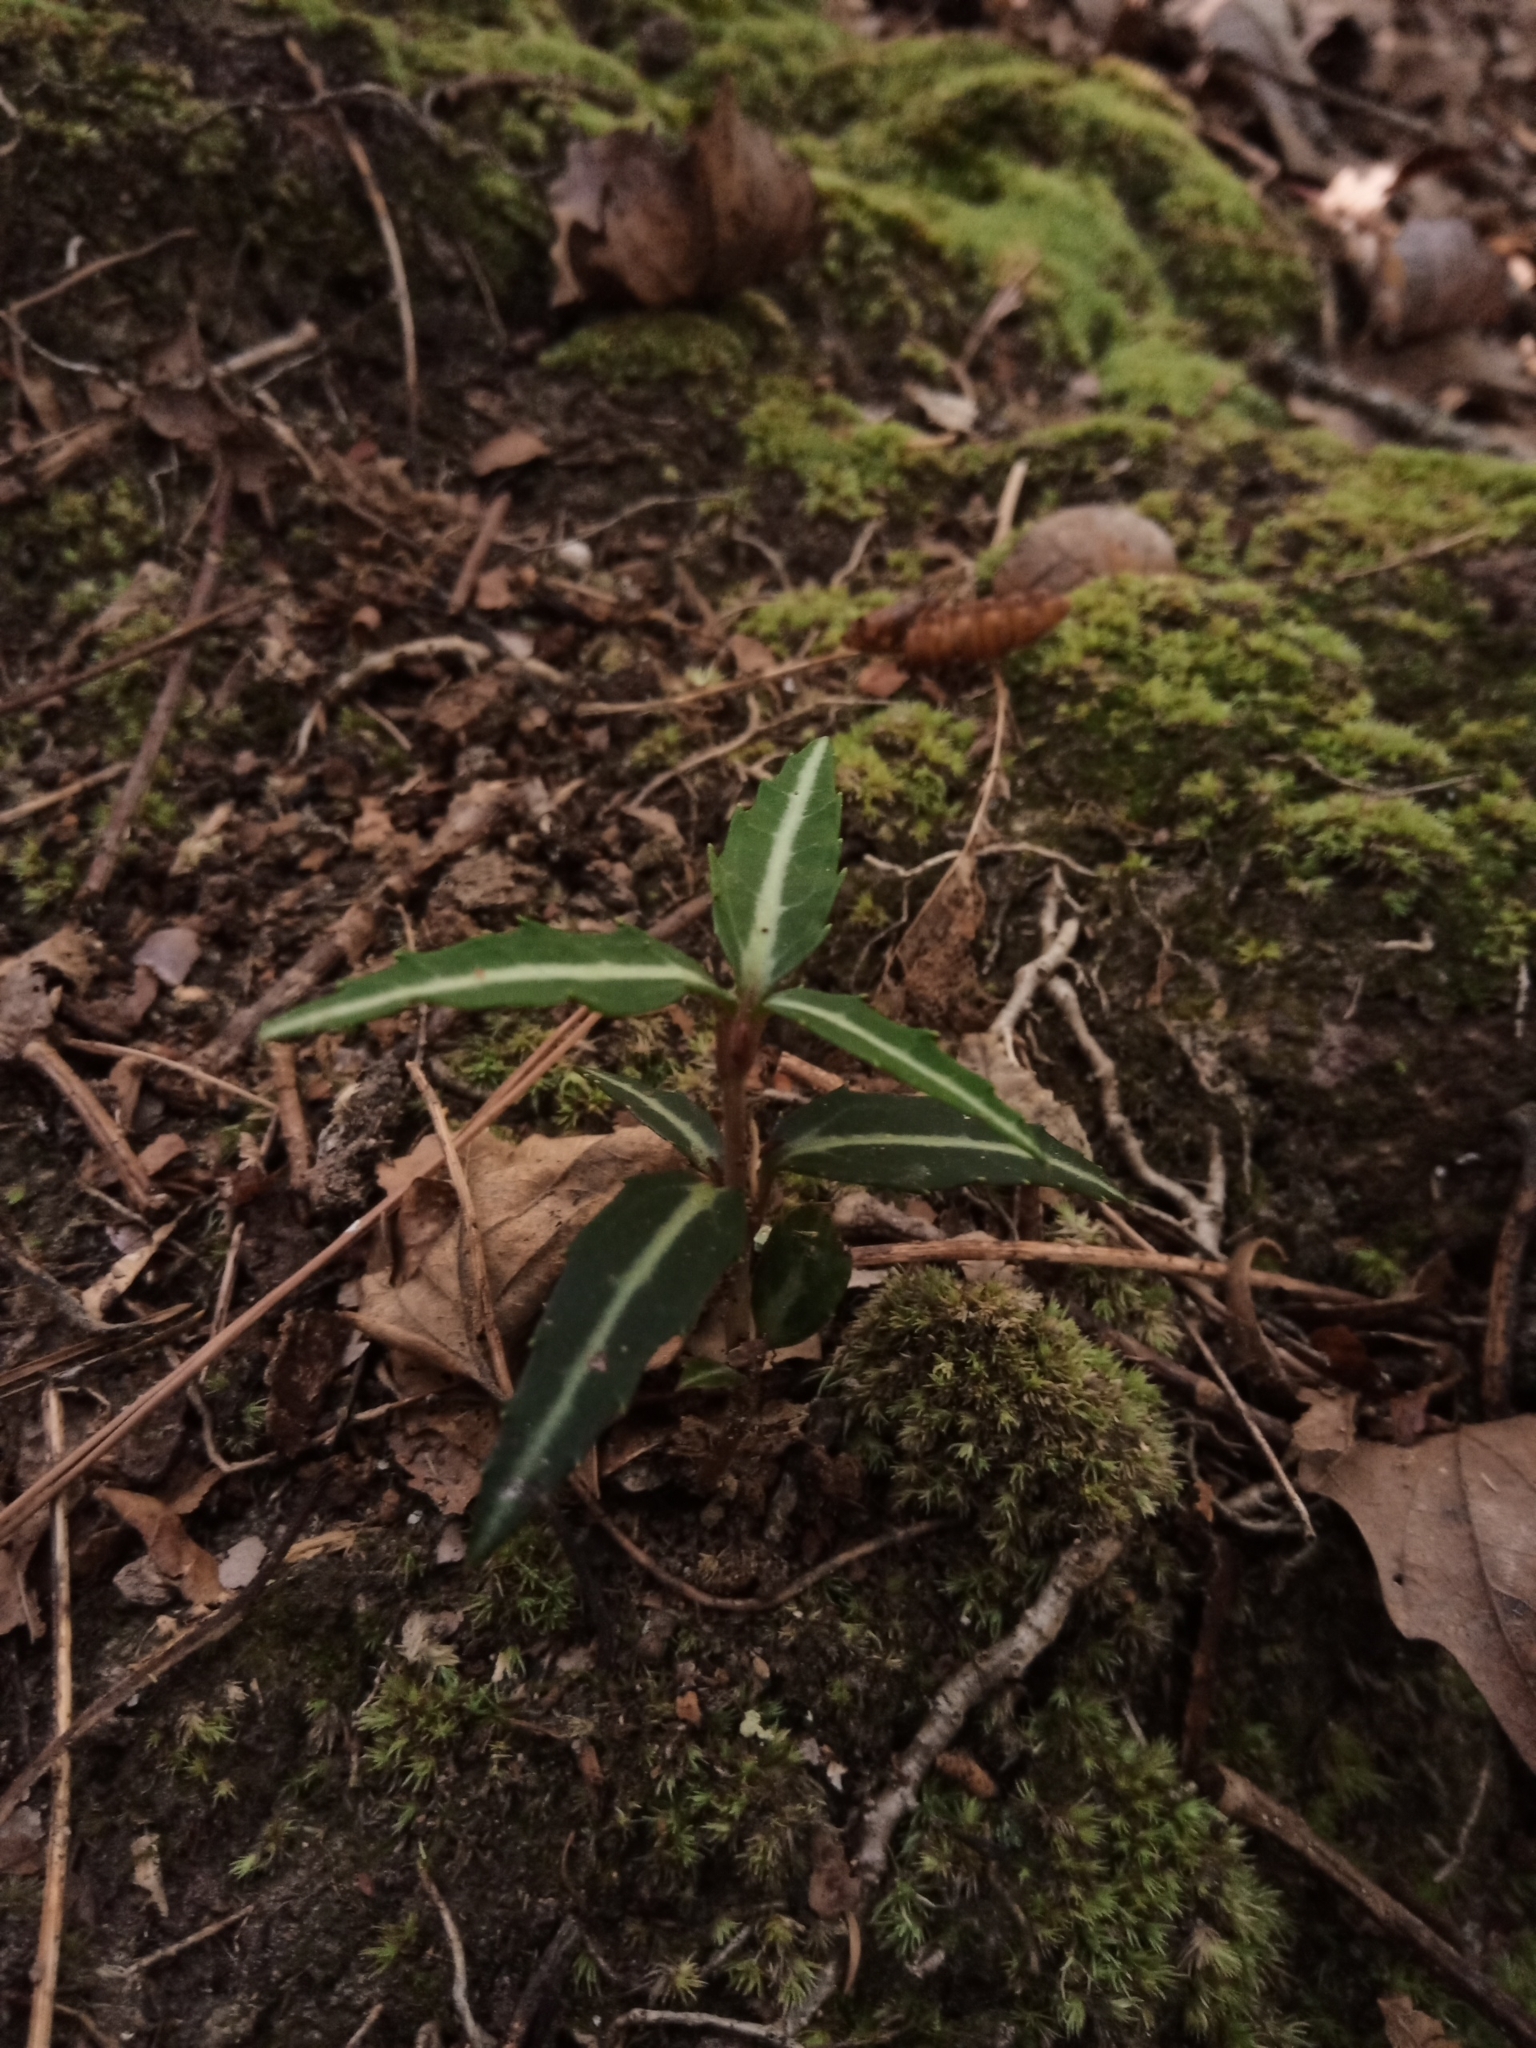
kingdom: Plantae
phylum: Tracheophyta
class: Magnoliopsida
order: Ericales
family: Ericaceae
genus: Chimaphila
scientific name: Chimaphila maculata
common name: Spotted pipsissewa
